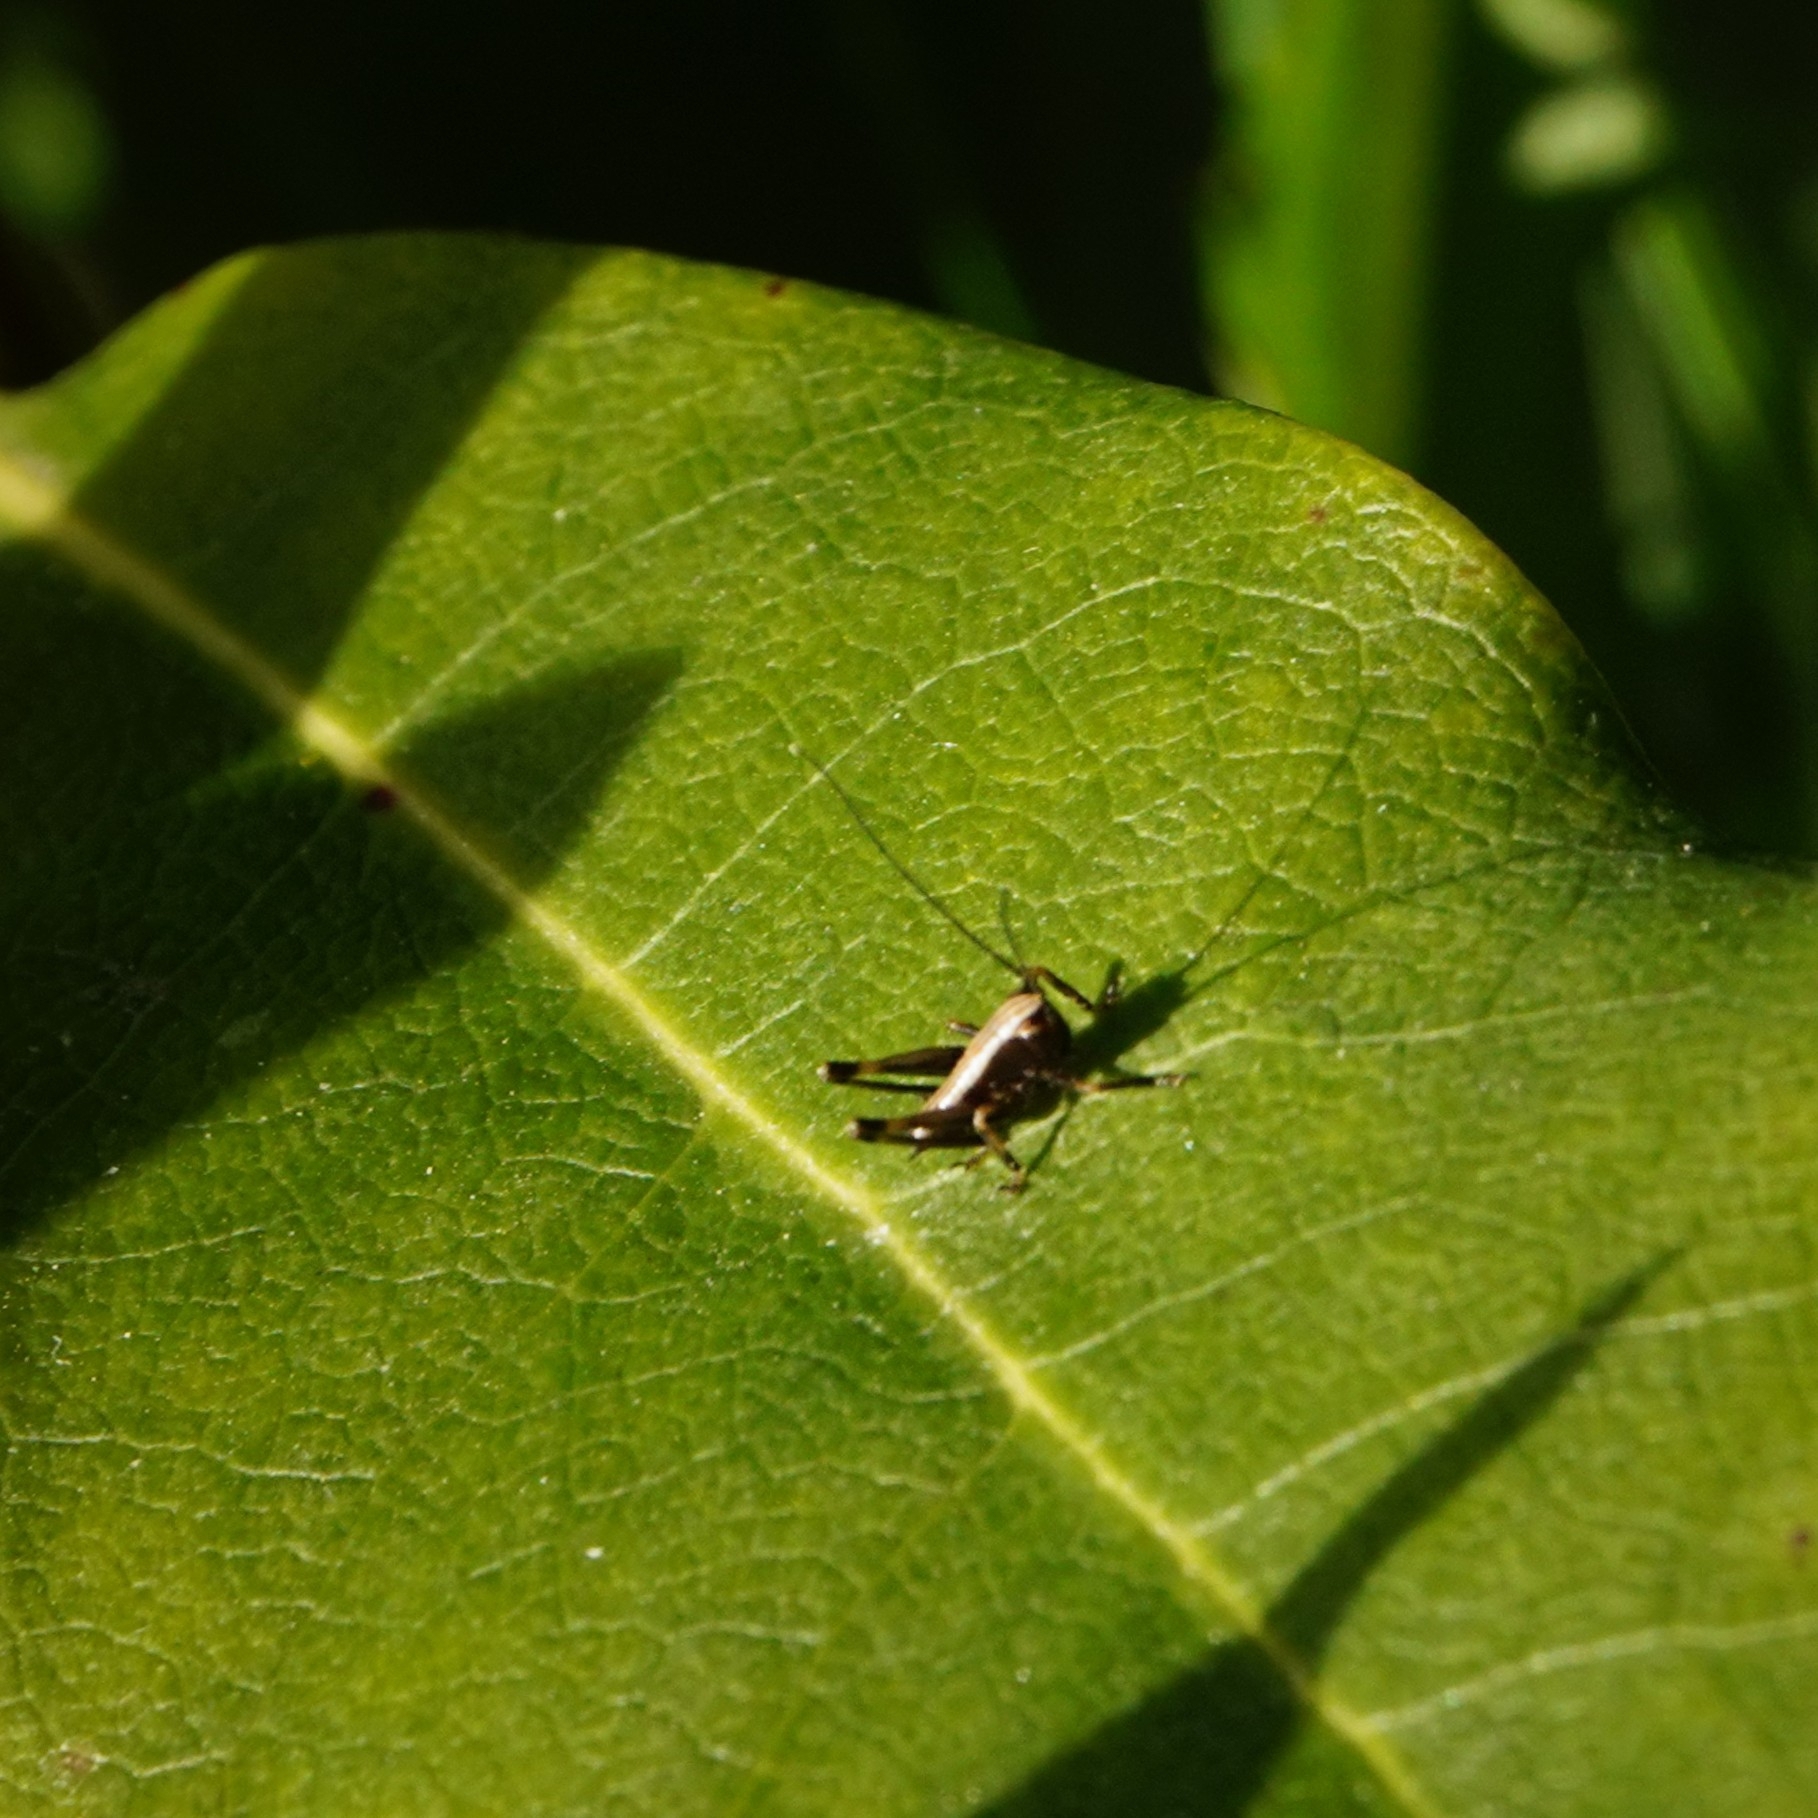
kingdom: Animalia
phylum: Arthropoda
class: Insecta
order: Orthoptera
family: Tettigoniidae
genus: Pholidoptera
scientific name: Pholidoptera griseoaptera
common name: Dark bush-cricket
